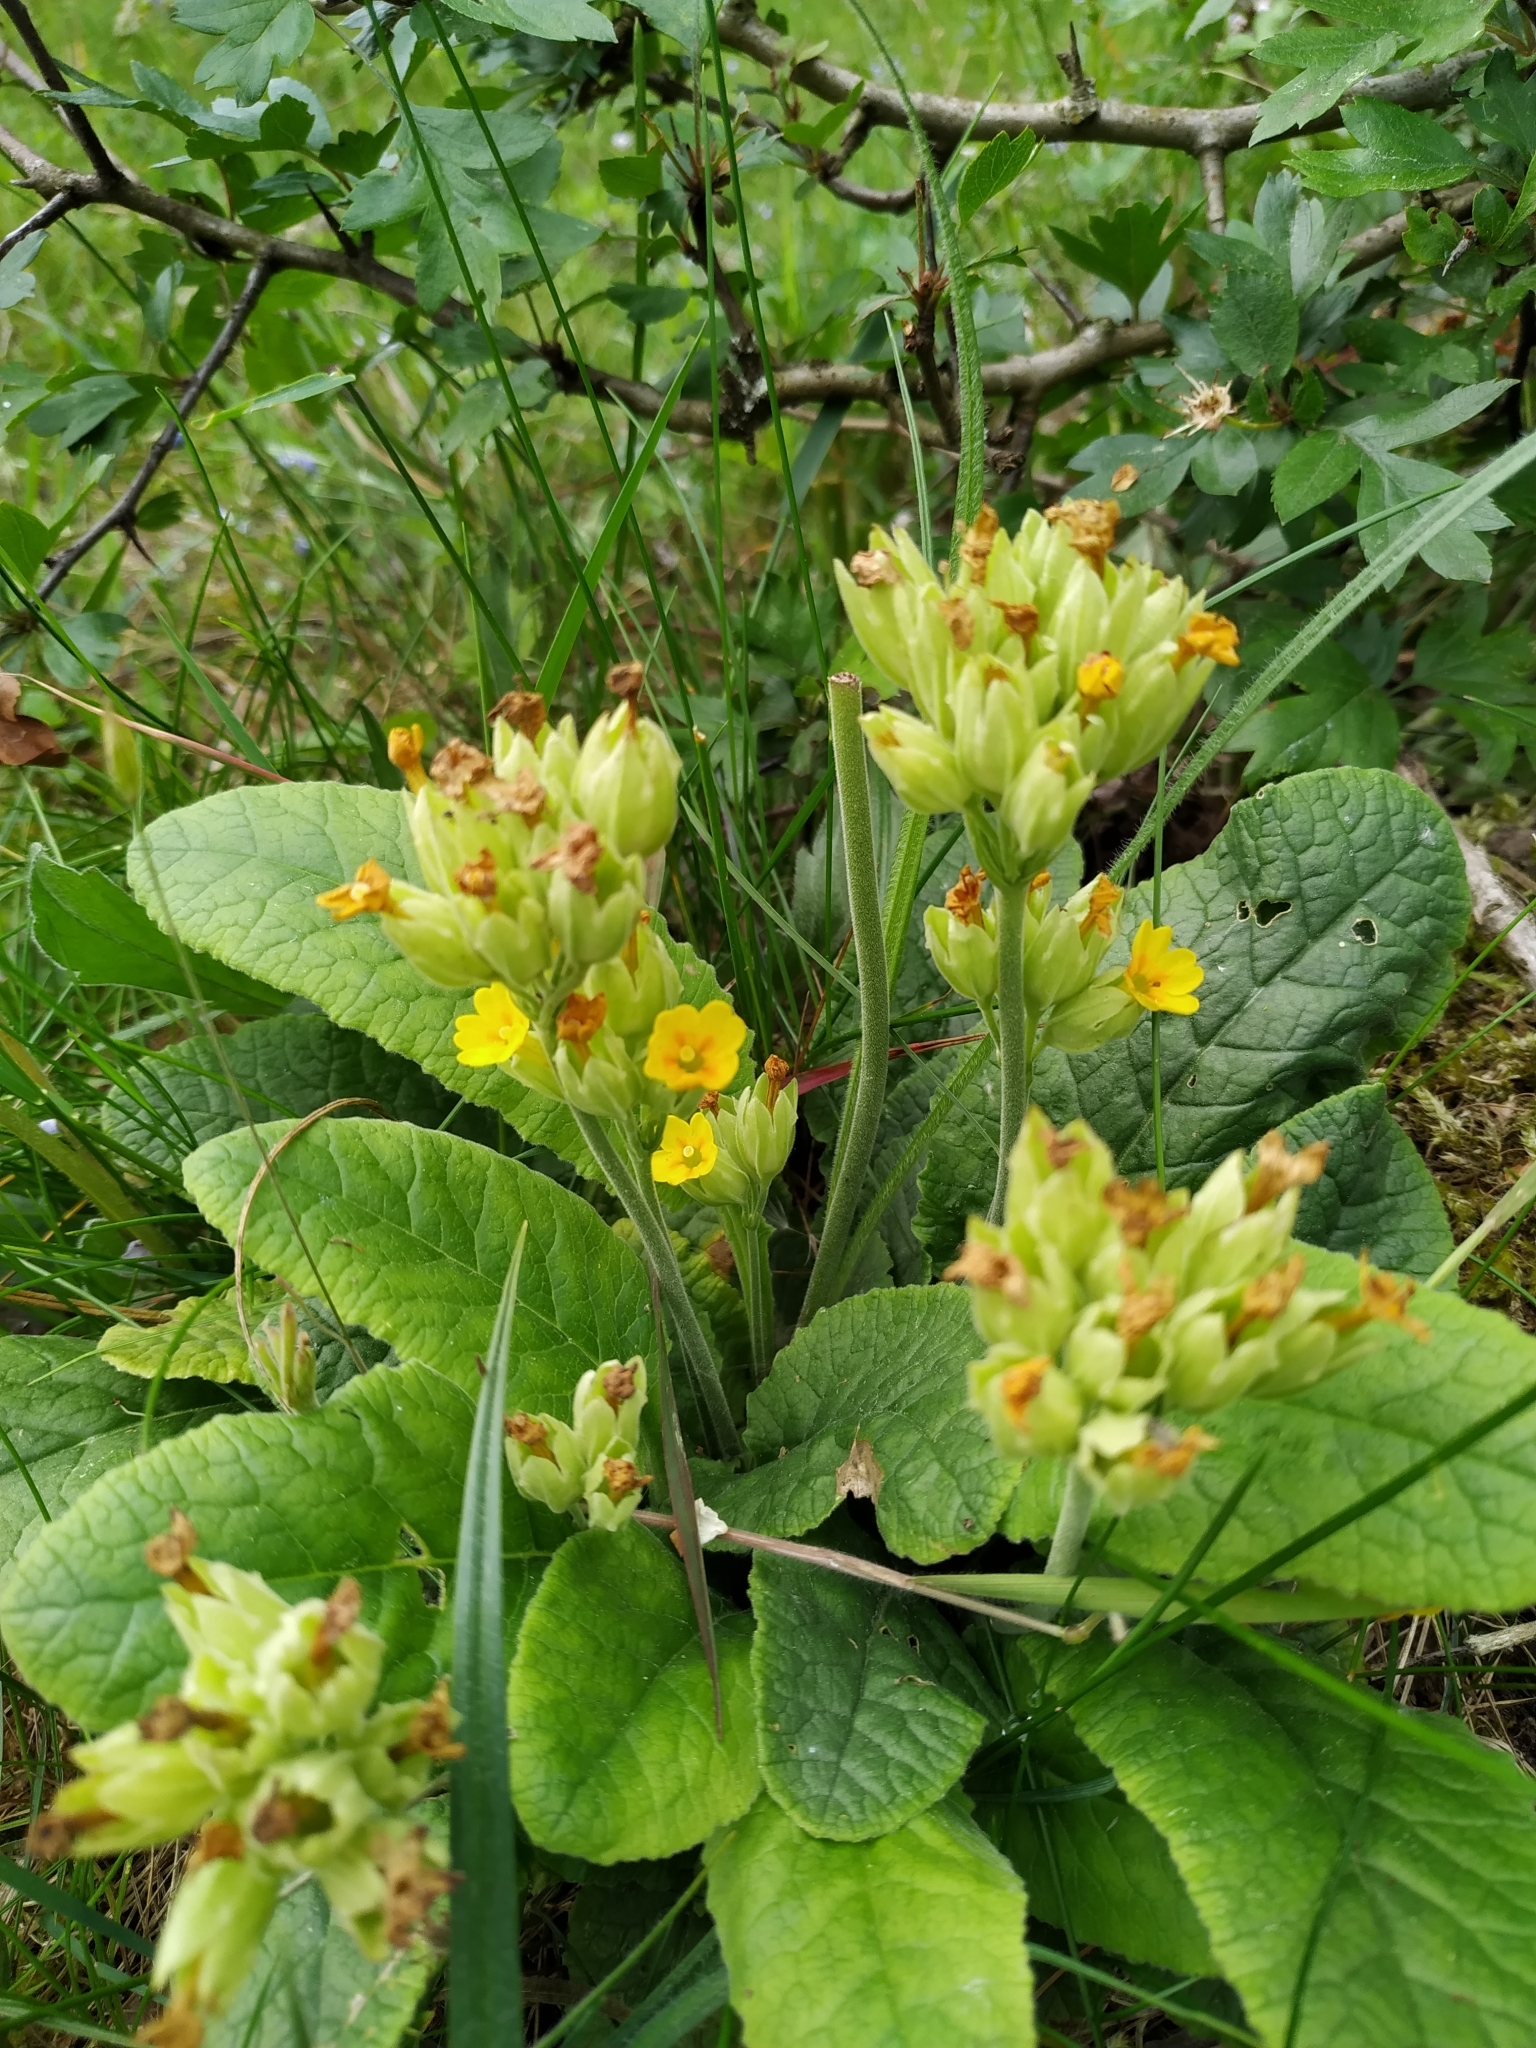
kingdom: Plantae
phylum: Tracheophyta
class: Magnoliopsida
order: Ericales
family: Primulaceae
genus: Primula
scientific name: Primula veris
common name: Cowslip
